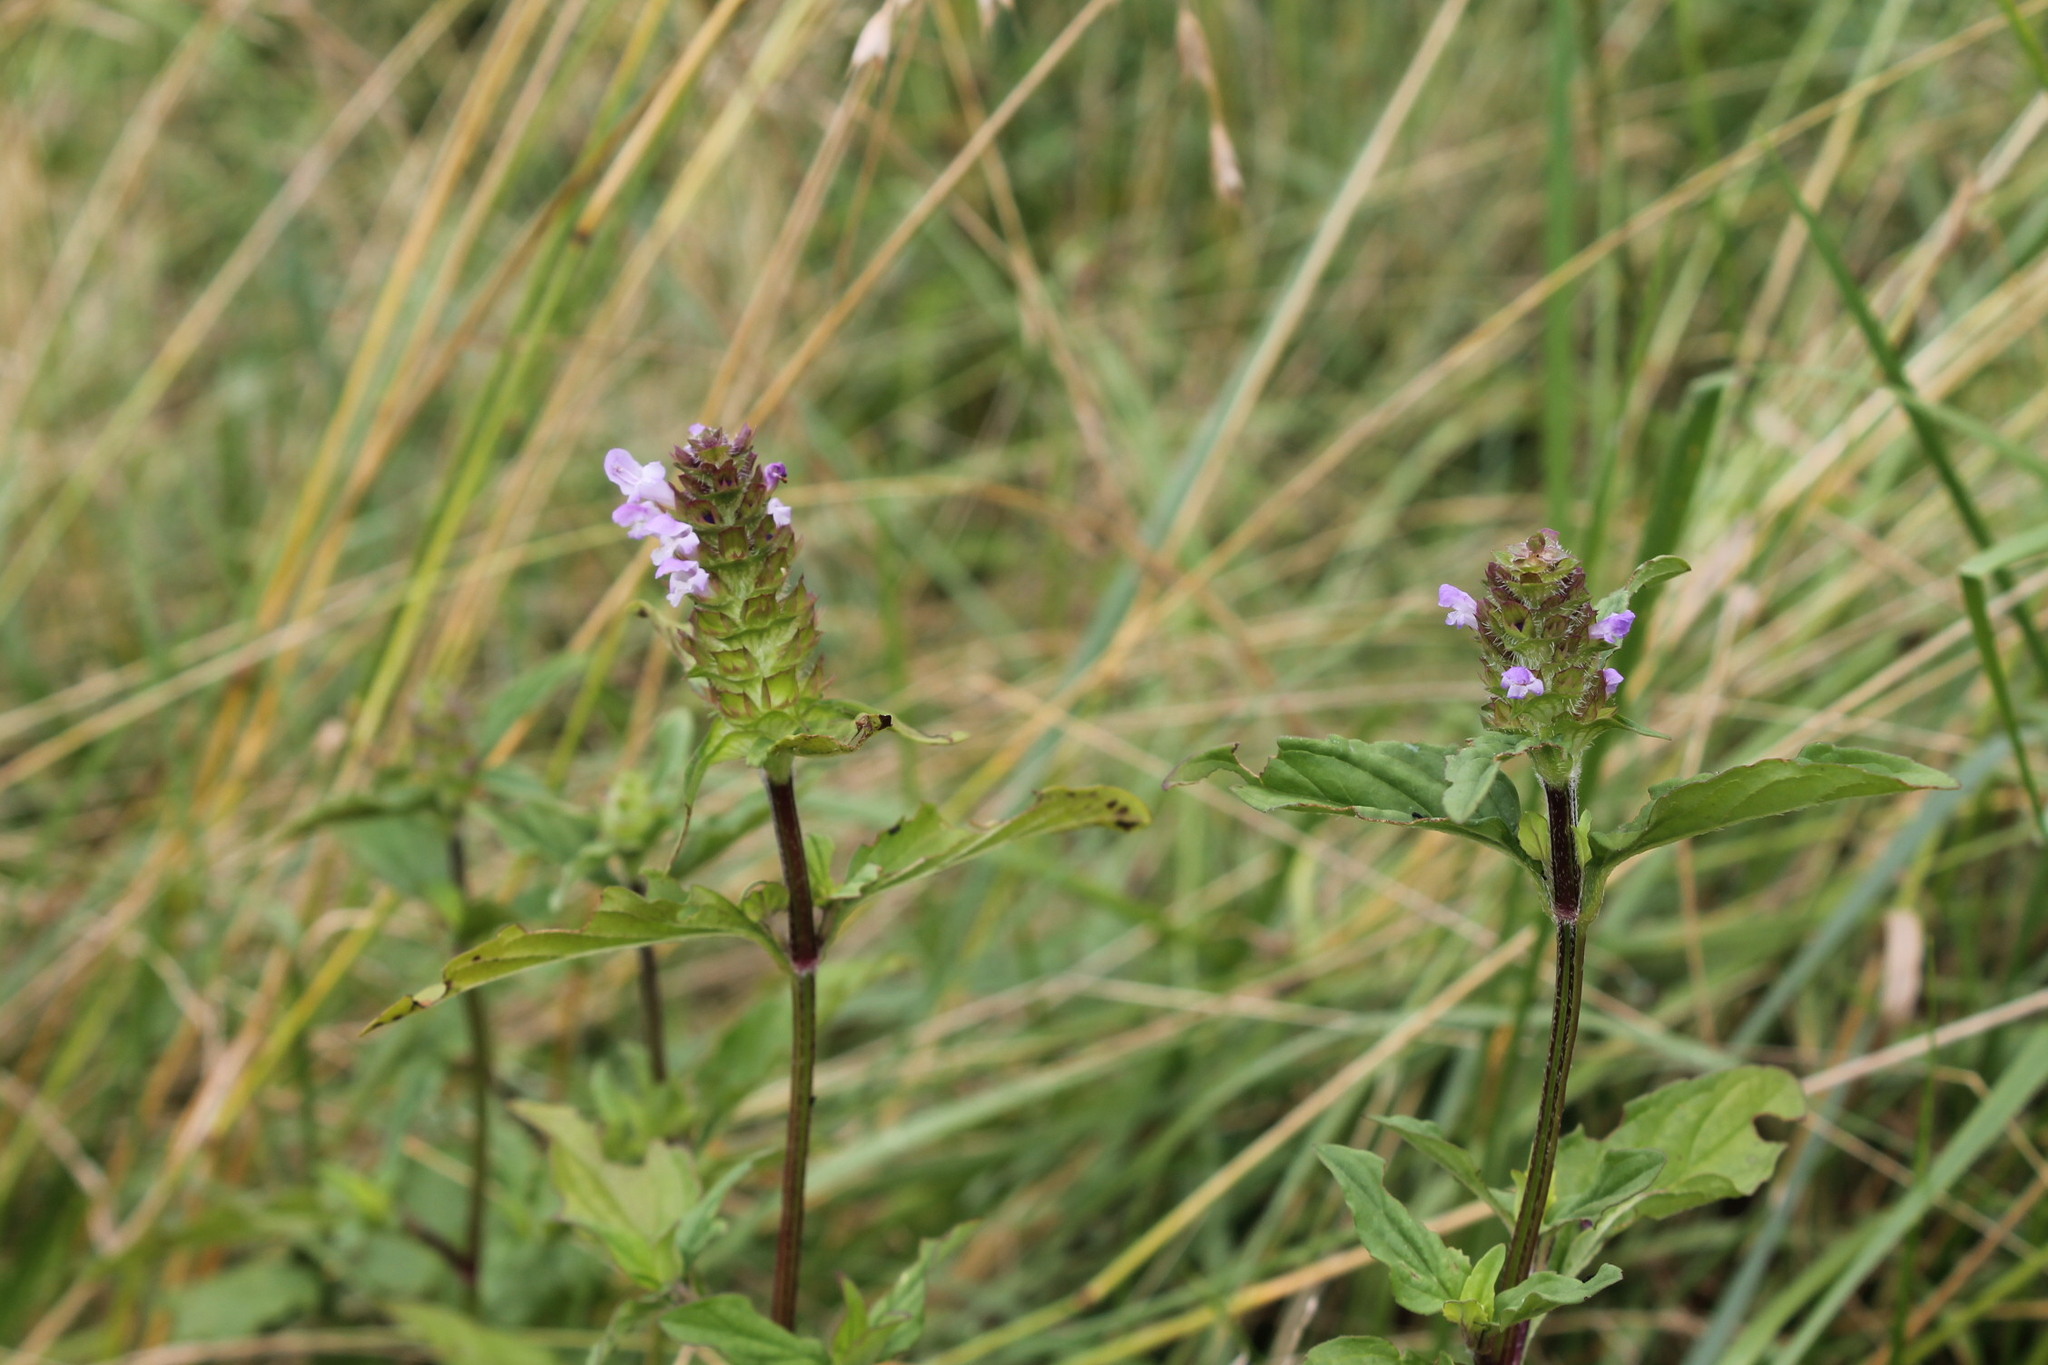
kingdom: Plantae
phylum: Tracheophyta
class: Magnoliopsida
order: Lamiales
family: Lamiaceae
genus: Prunella
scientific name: Prunella vulgaris
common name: Heal-all
